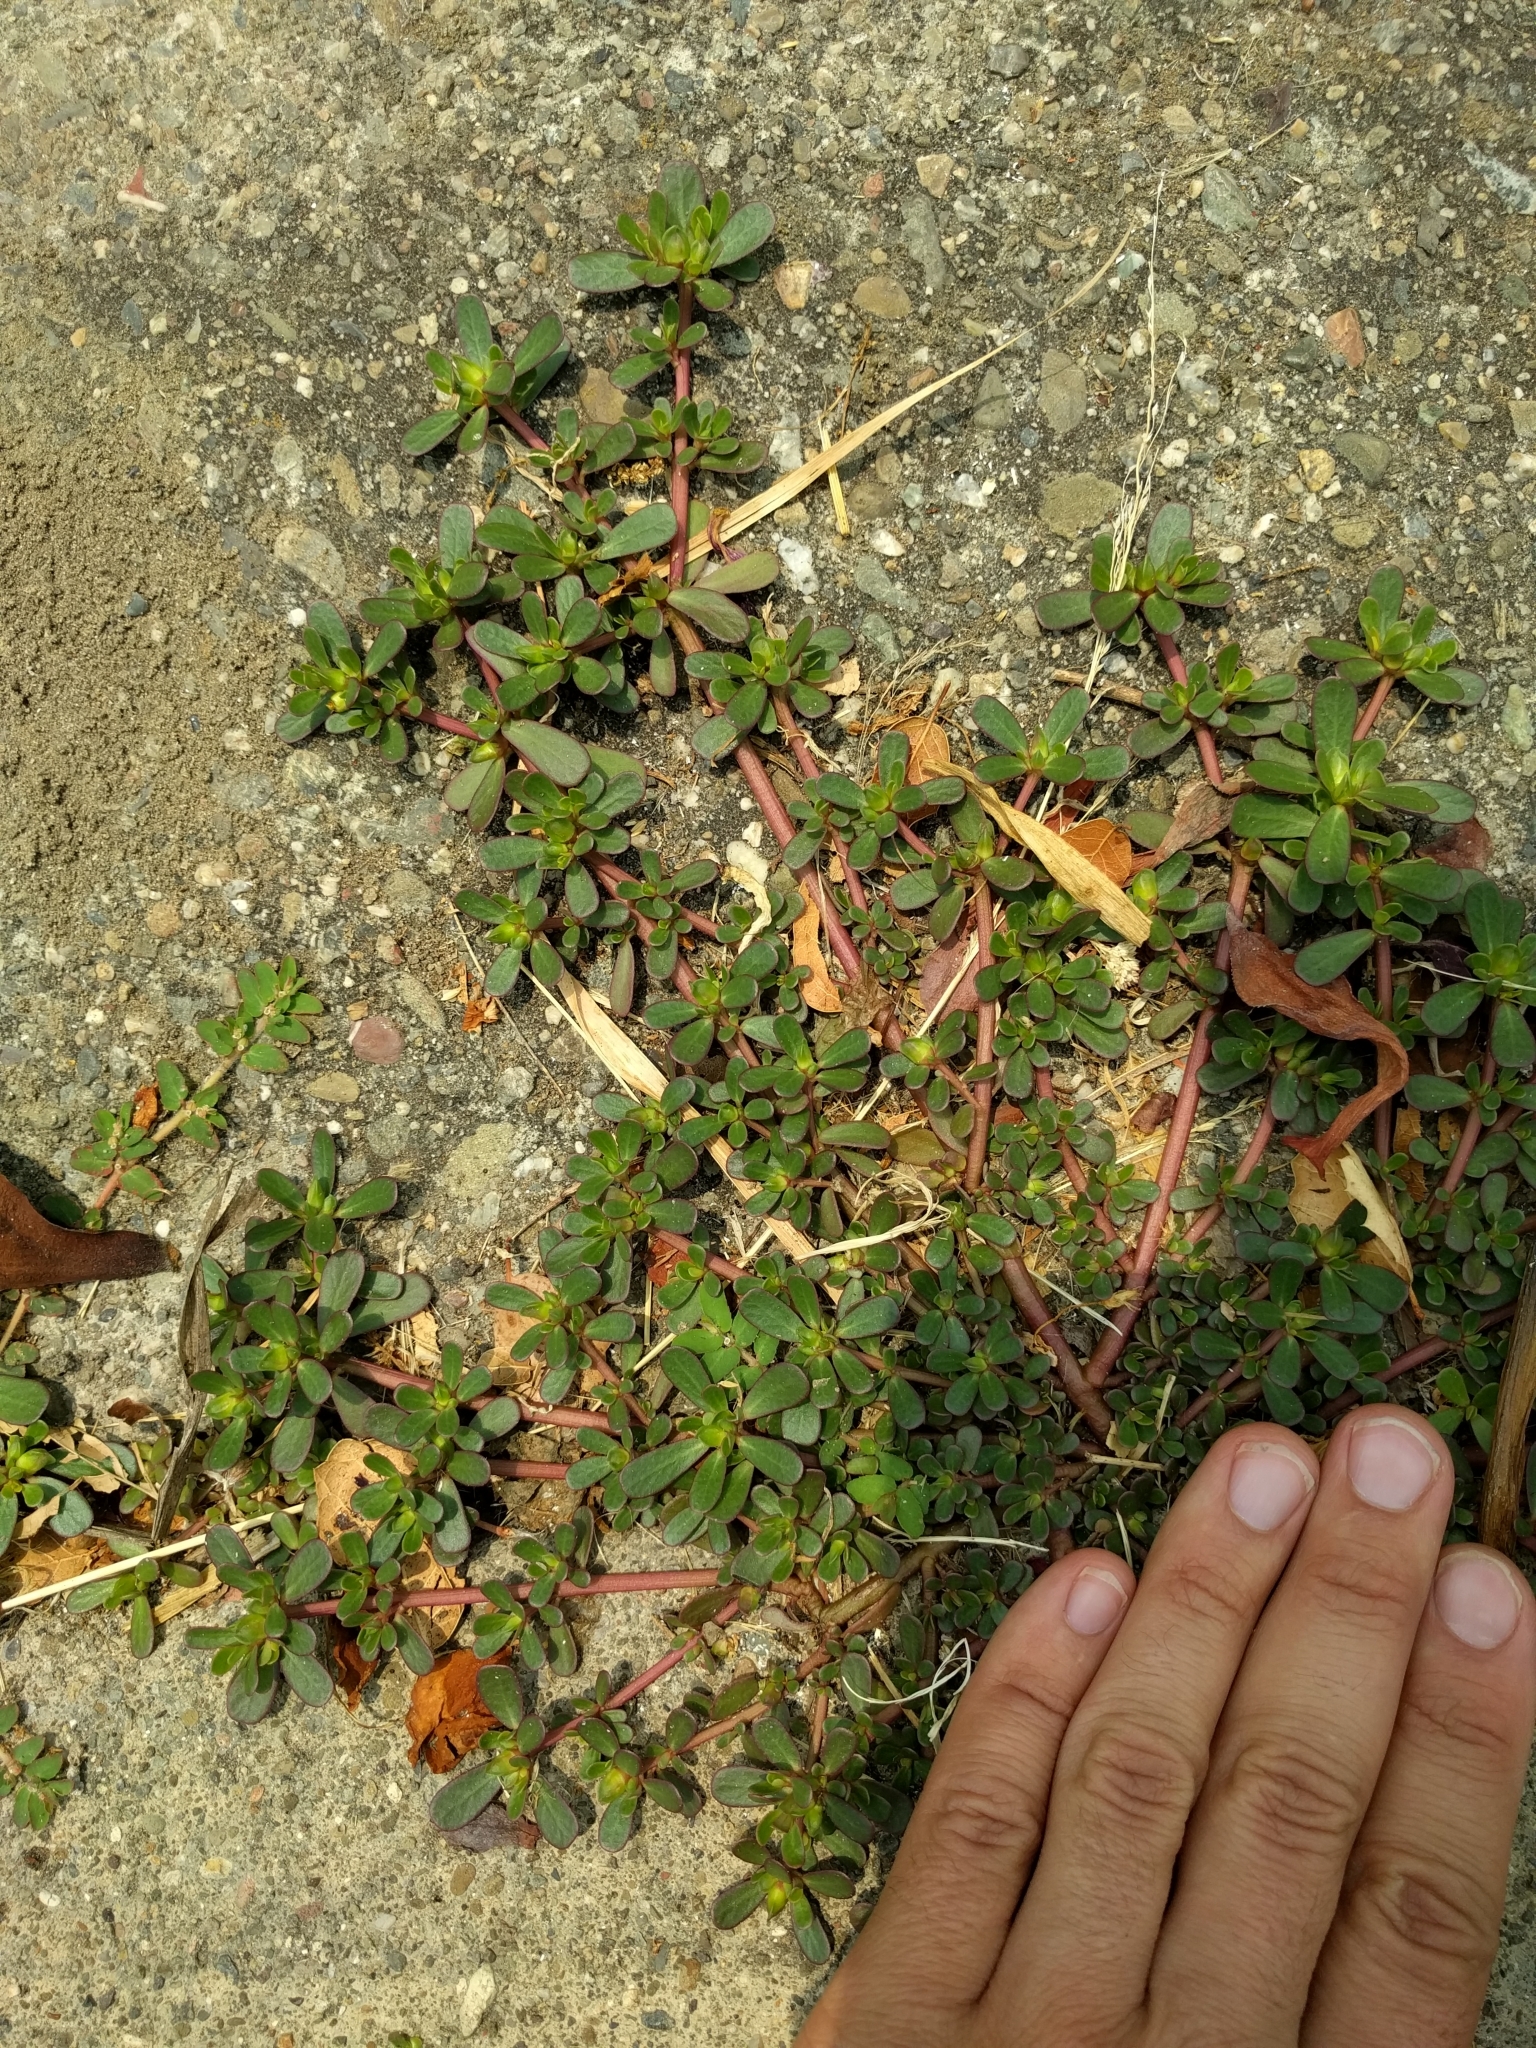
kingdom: Plantae
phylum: Tracheophyta
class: Magnoliopsida
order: Caryophyllales
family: Portulacaceae
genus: Portulaca
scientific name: Portulaca oleracea
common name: Common purslane
